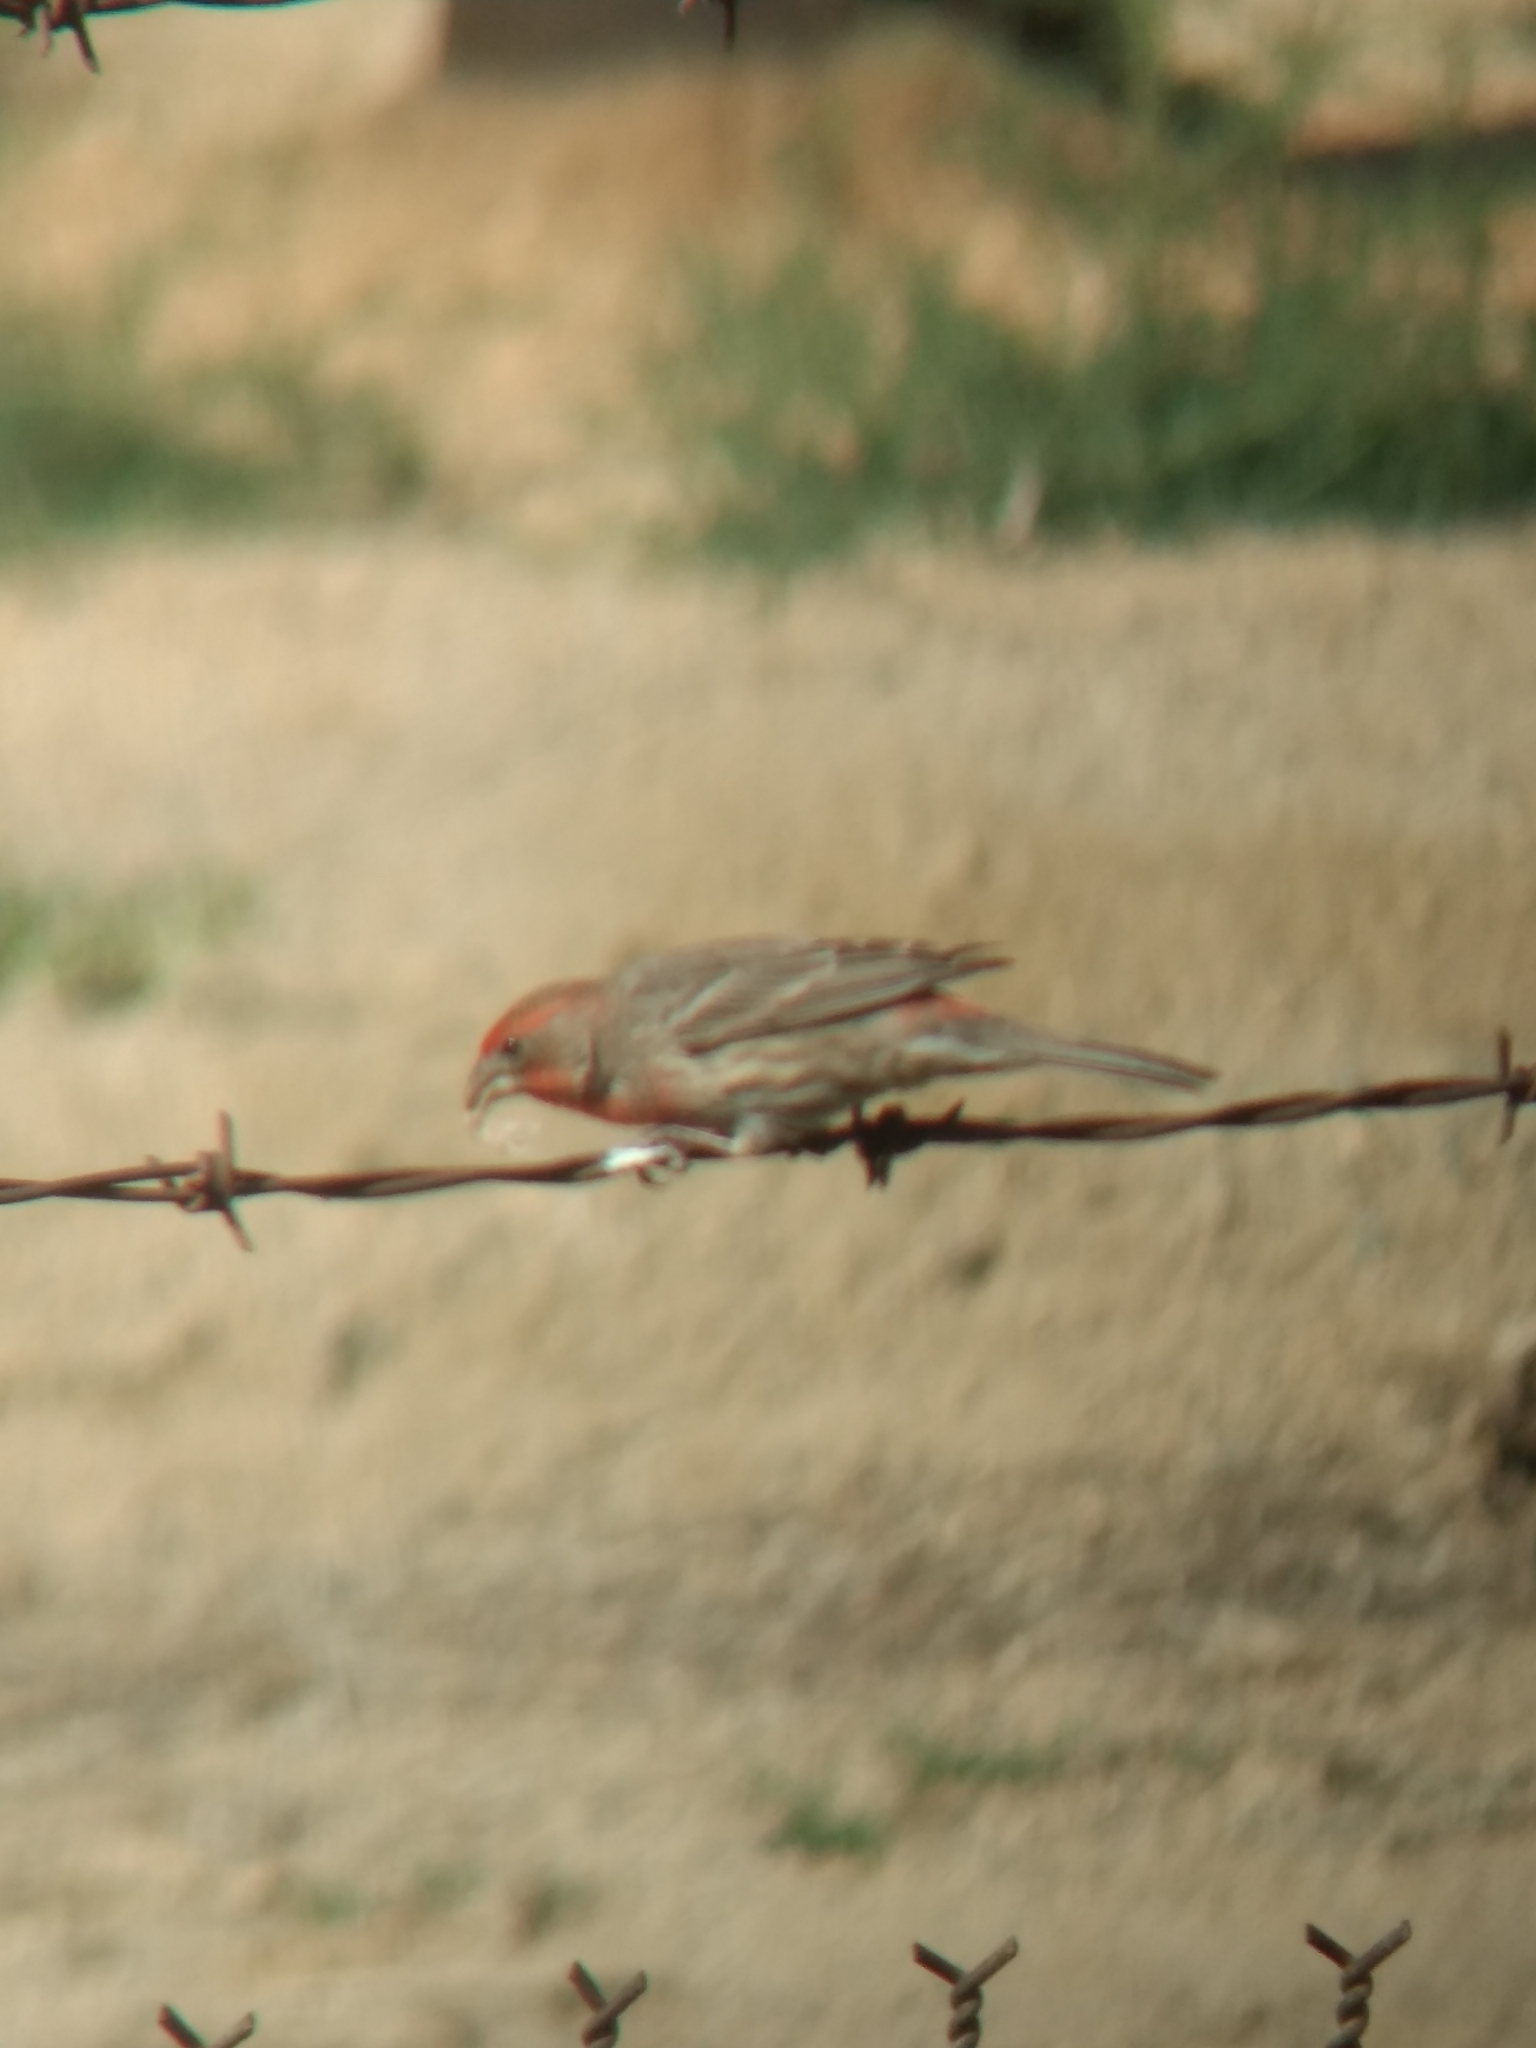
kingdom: Animalia
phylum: Chordata
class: Aves
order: Passeriformes
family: Fringillidae
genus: Haemorhous
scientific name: Haemorhous mexicanus
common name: House finch
